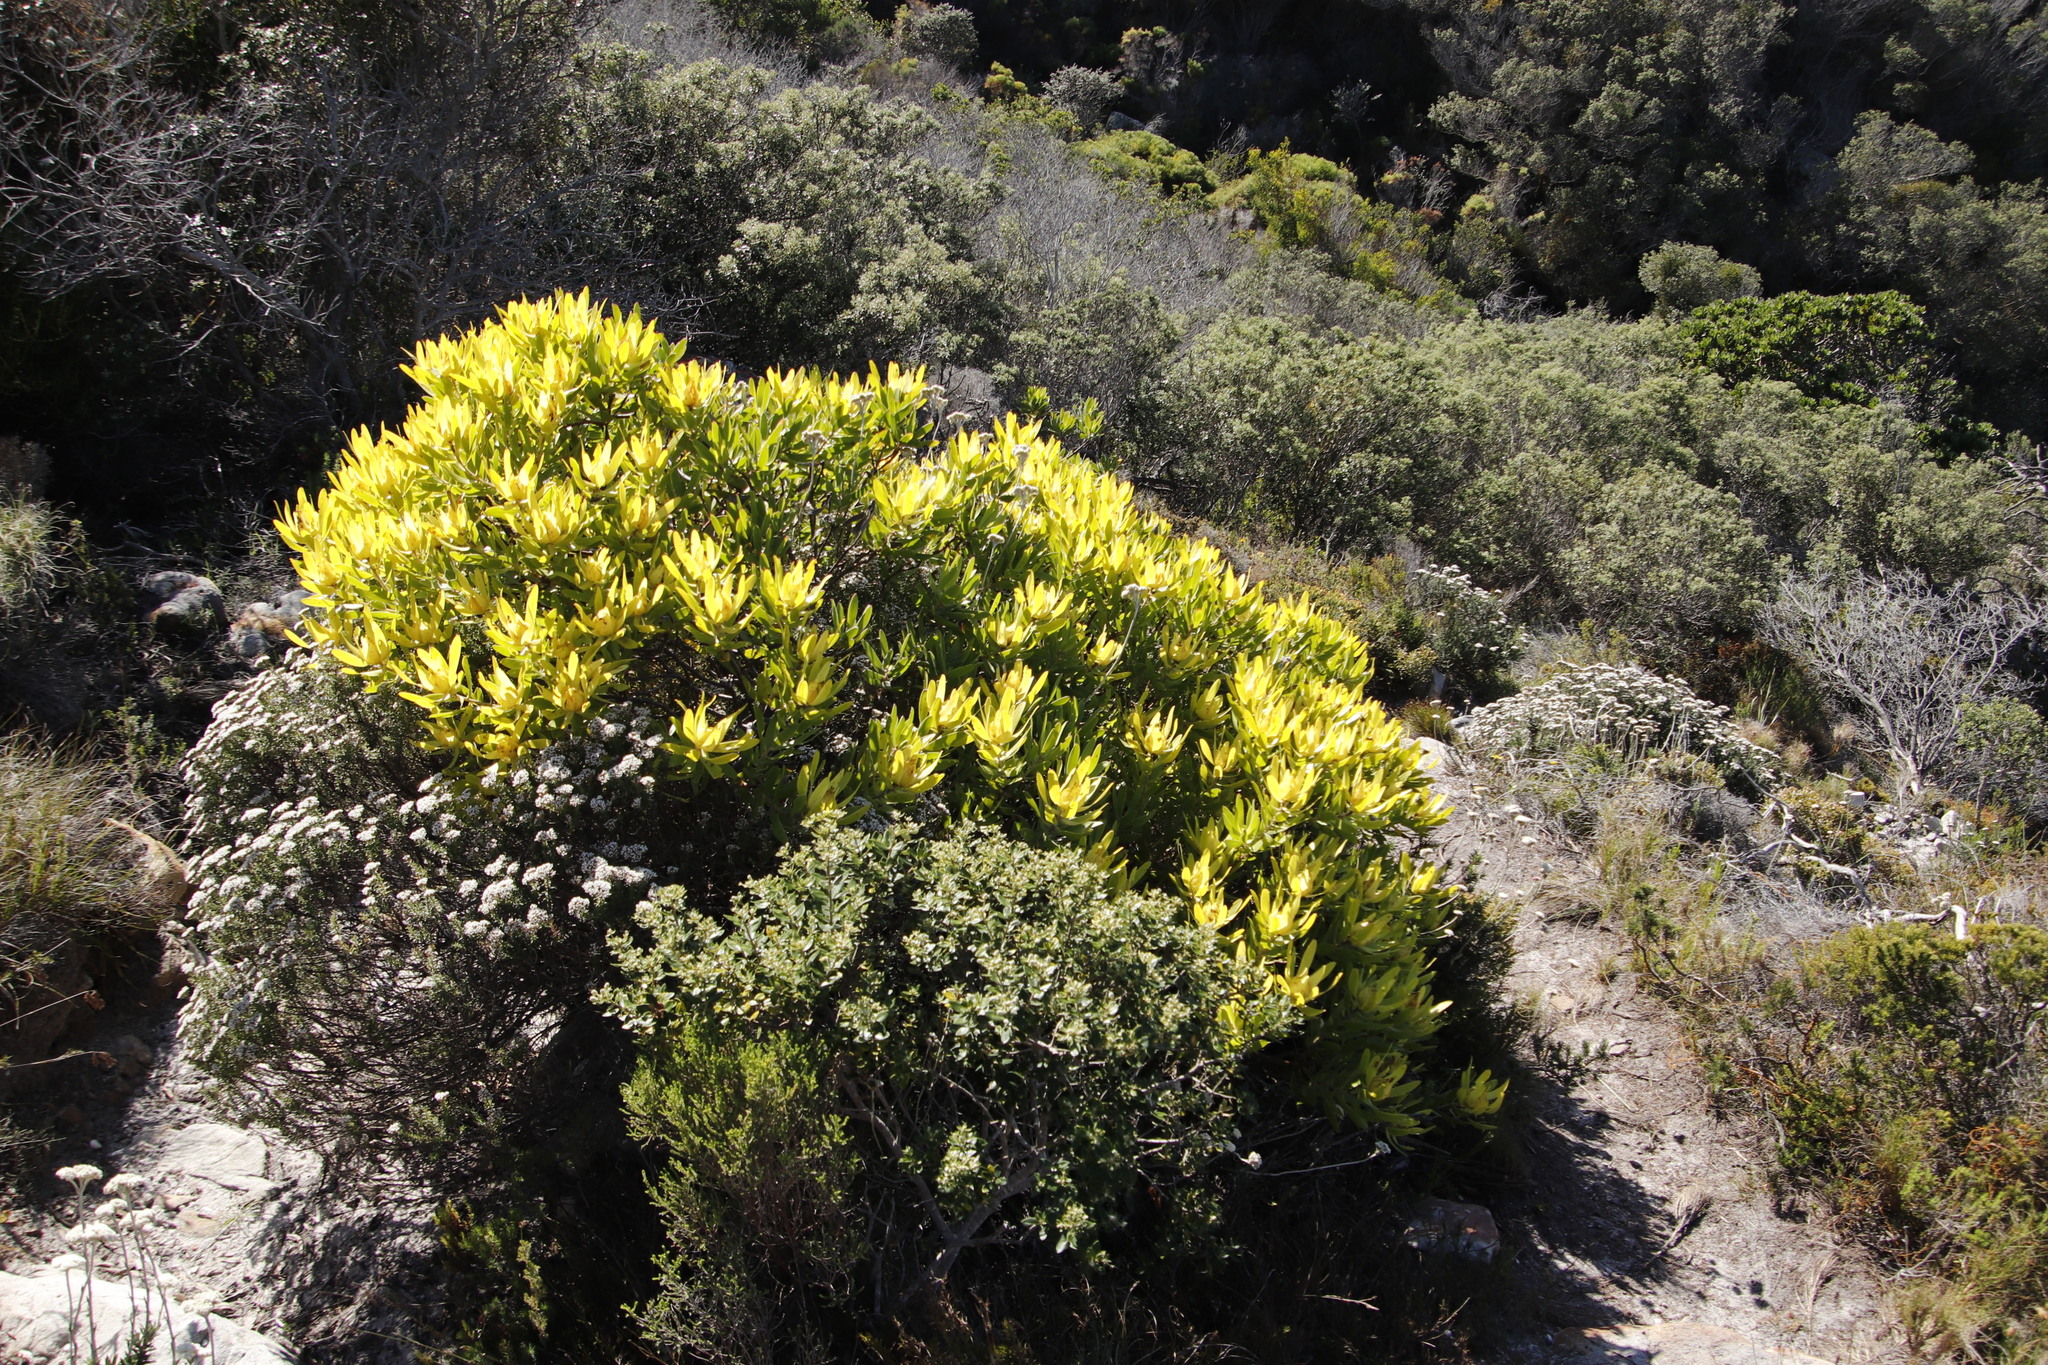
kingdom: Plantae
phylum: Tracheophyta
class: Magnoliopsida
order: Proteales
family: Proteaceae
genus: Leucadendron
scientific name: Leucadendron laureolum
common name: Golden sunshinebush
